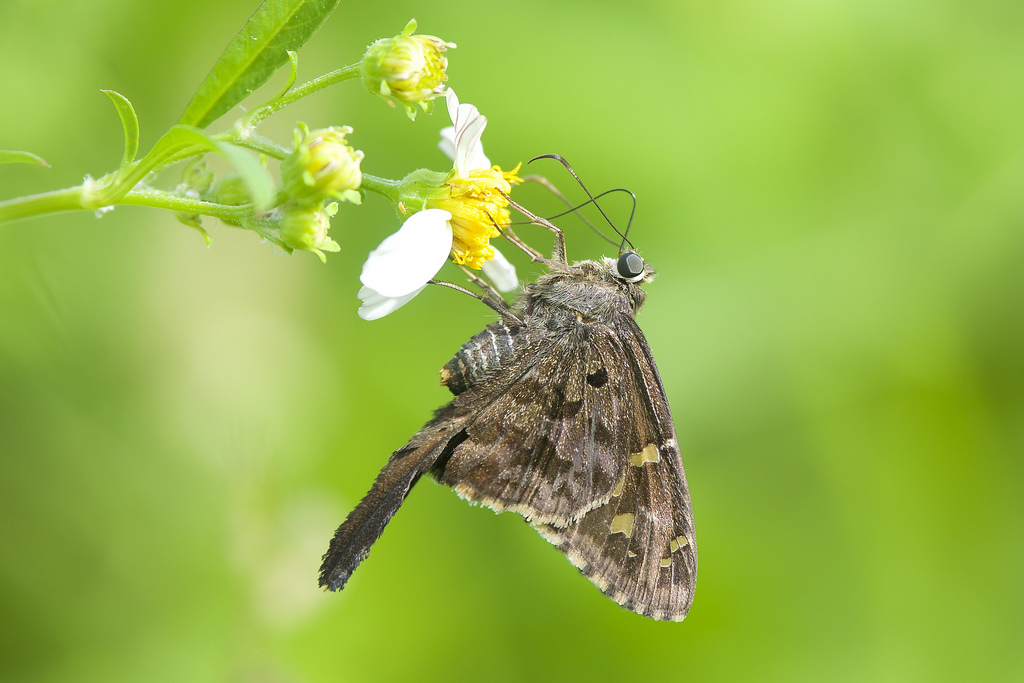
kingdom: Animalia
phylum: Arthropoda
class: Insecta
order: Lepidoptera
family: Hesperiidae
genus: Thorybes
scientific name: Thorybes
